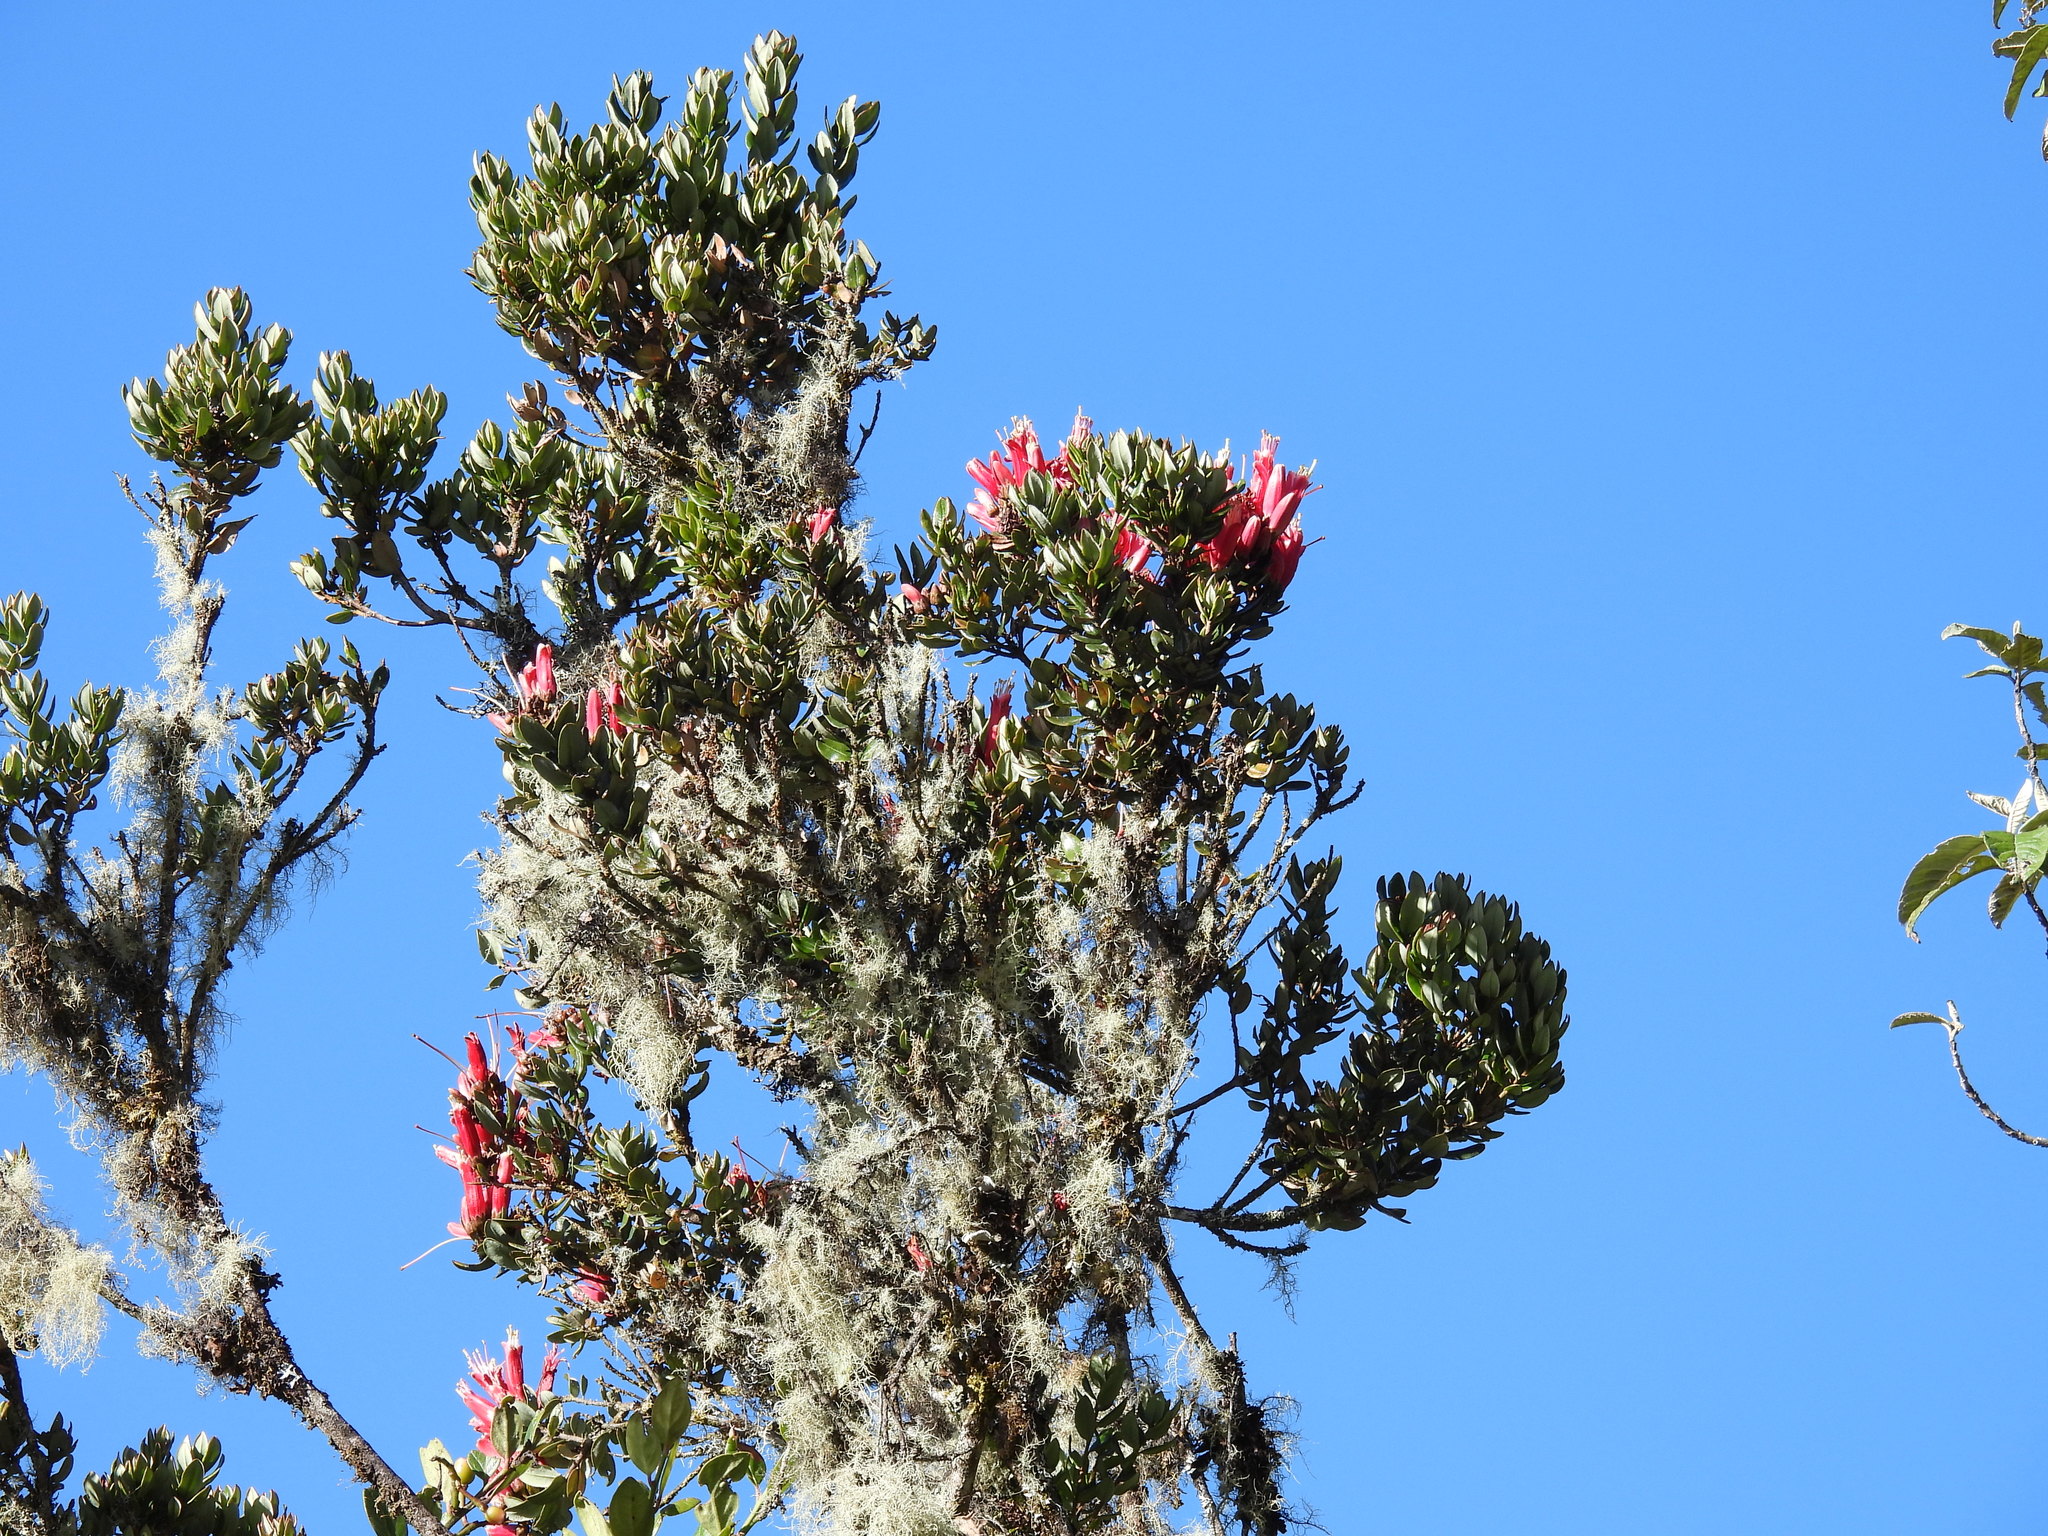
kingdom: Plantae
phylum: Tracheophyta
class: Magnoliopsida
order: Ericales
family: Ericaceae
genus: Bejaria
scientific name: Bejaria mathewsii
